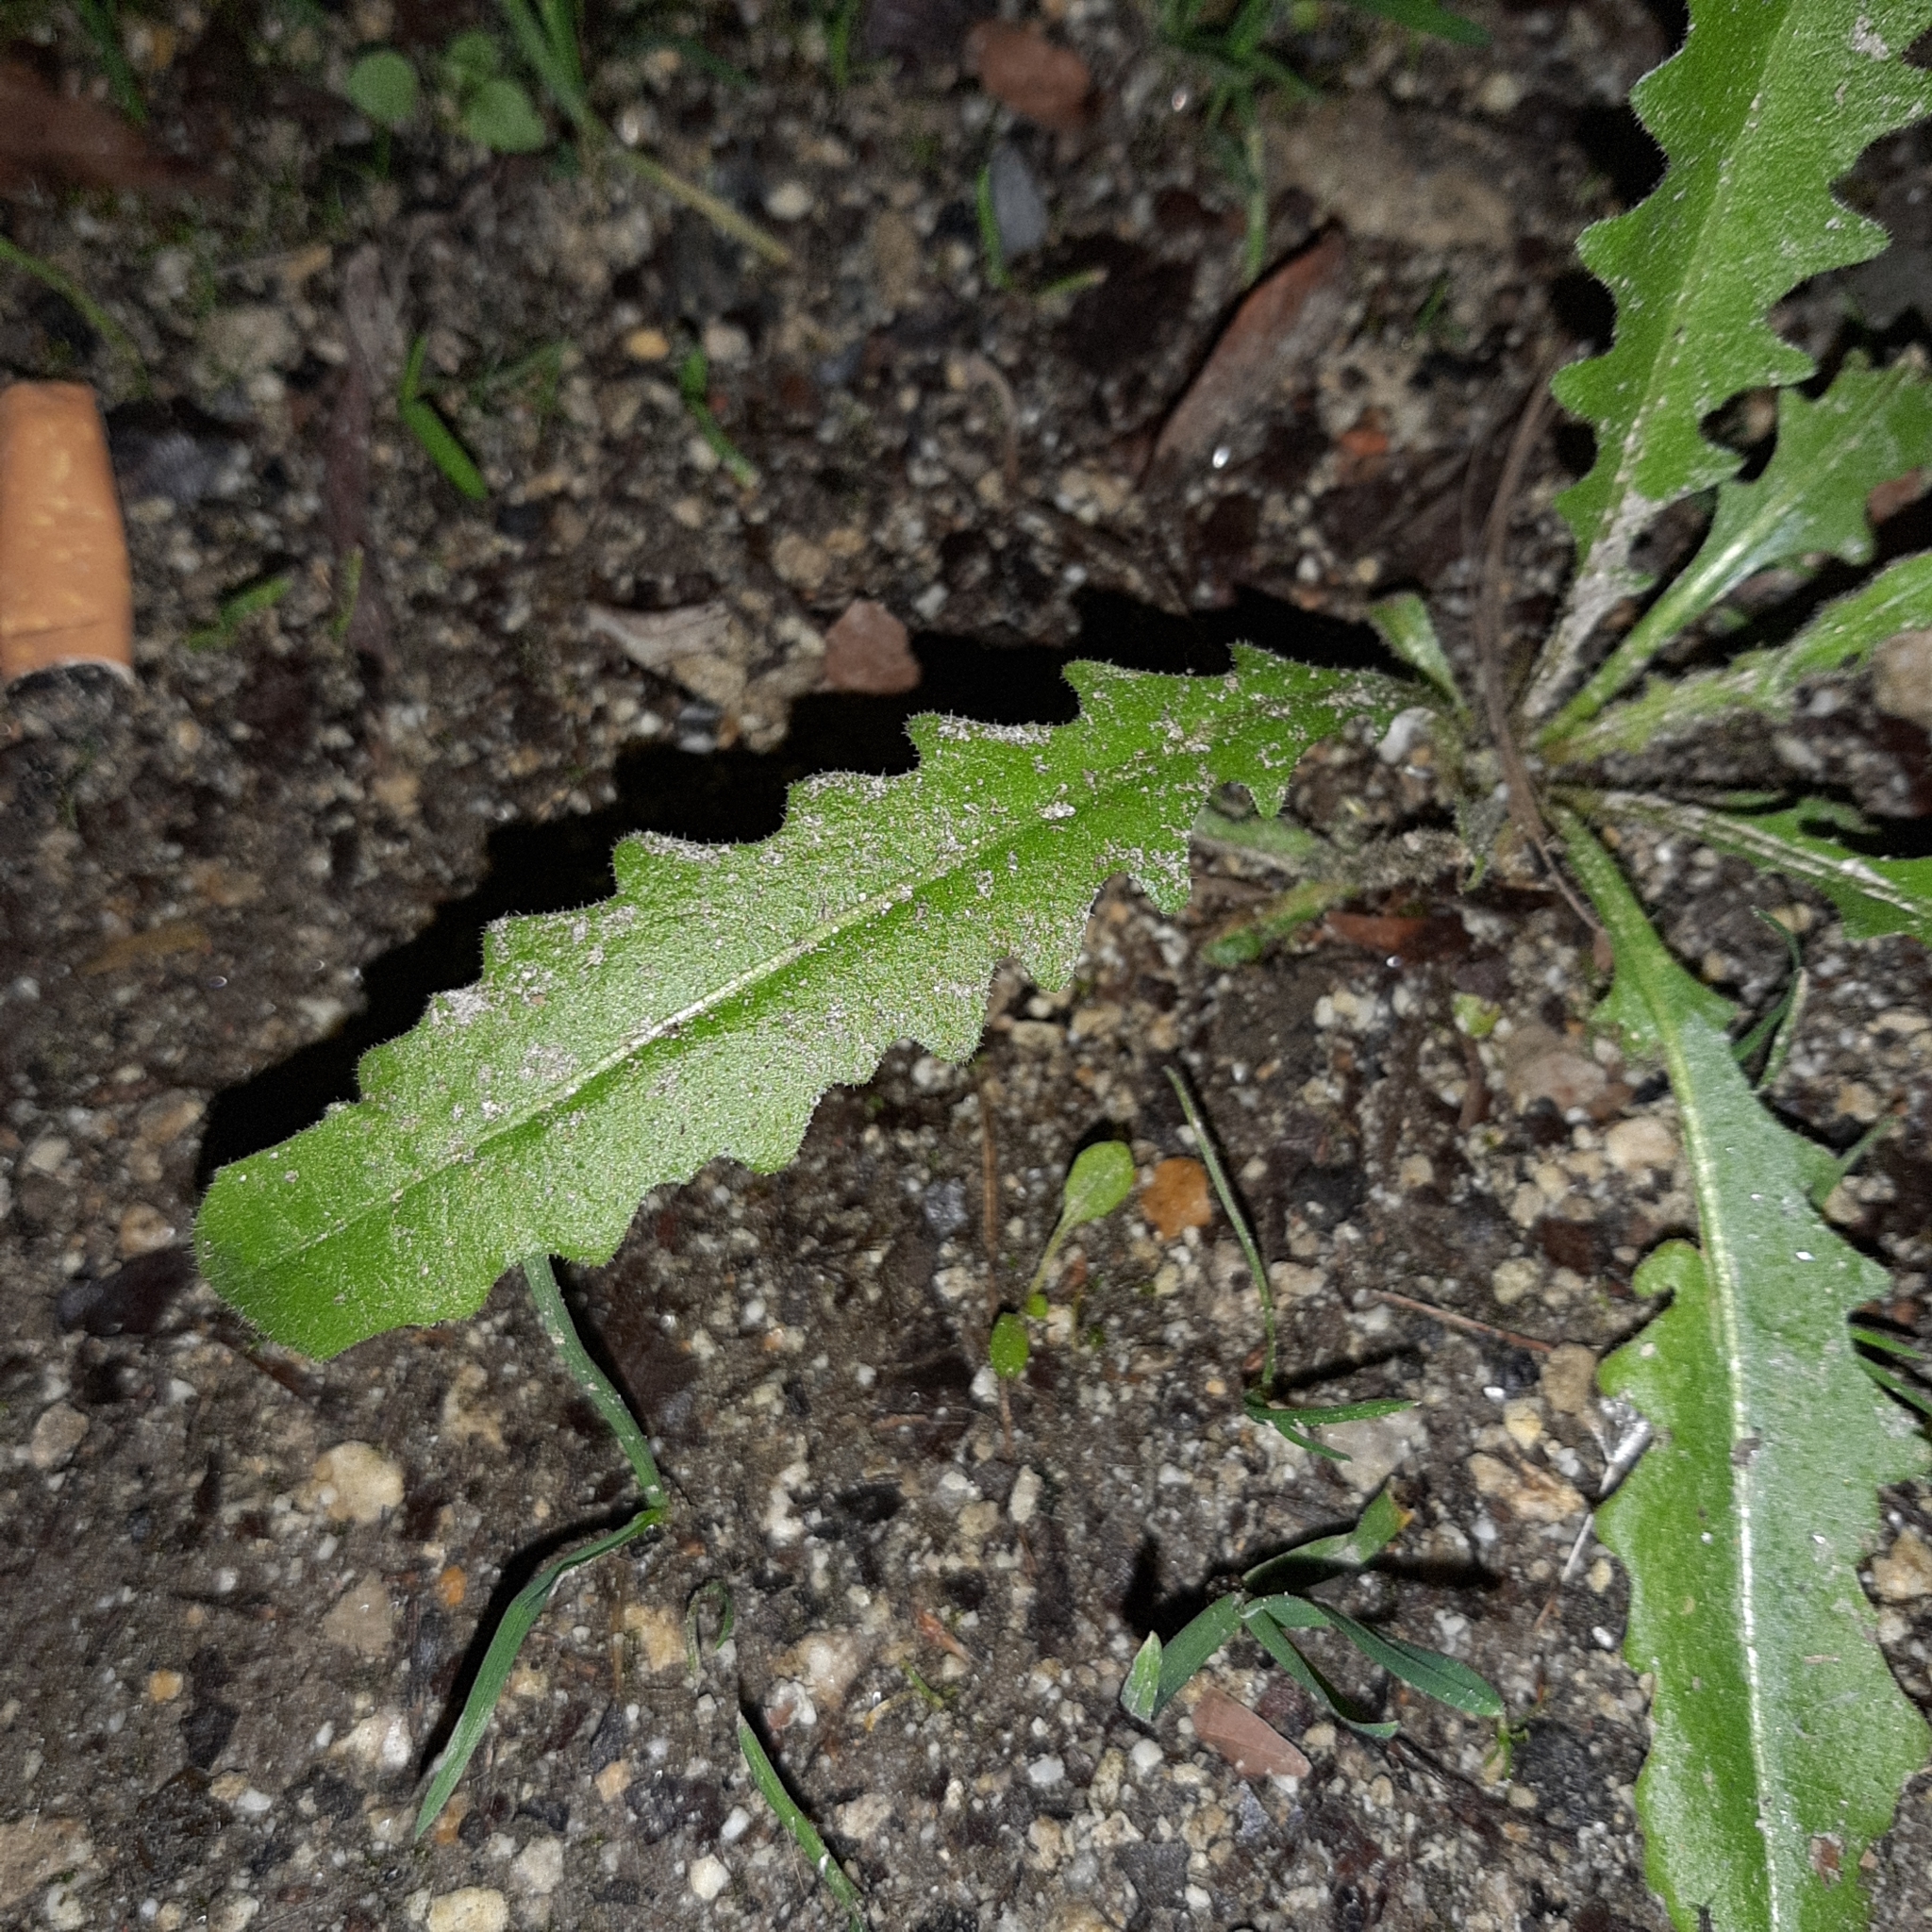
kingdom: Plantae
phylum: Tracheophyta
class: Magnoliopsida
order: Asterales
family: Asteraceae
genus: Hypochaeris
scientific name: Hypochaeris radicata
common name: Flatweed
